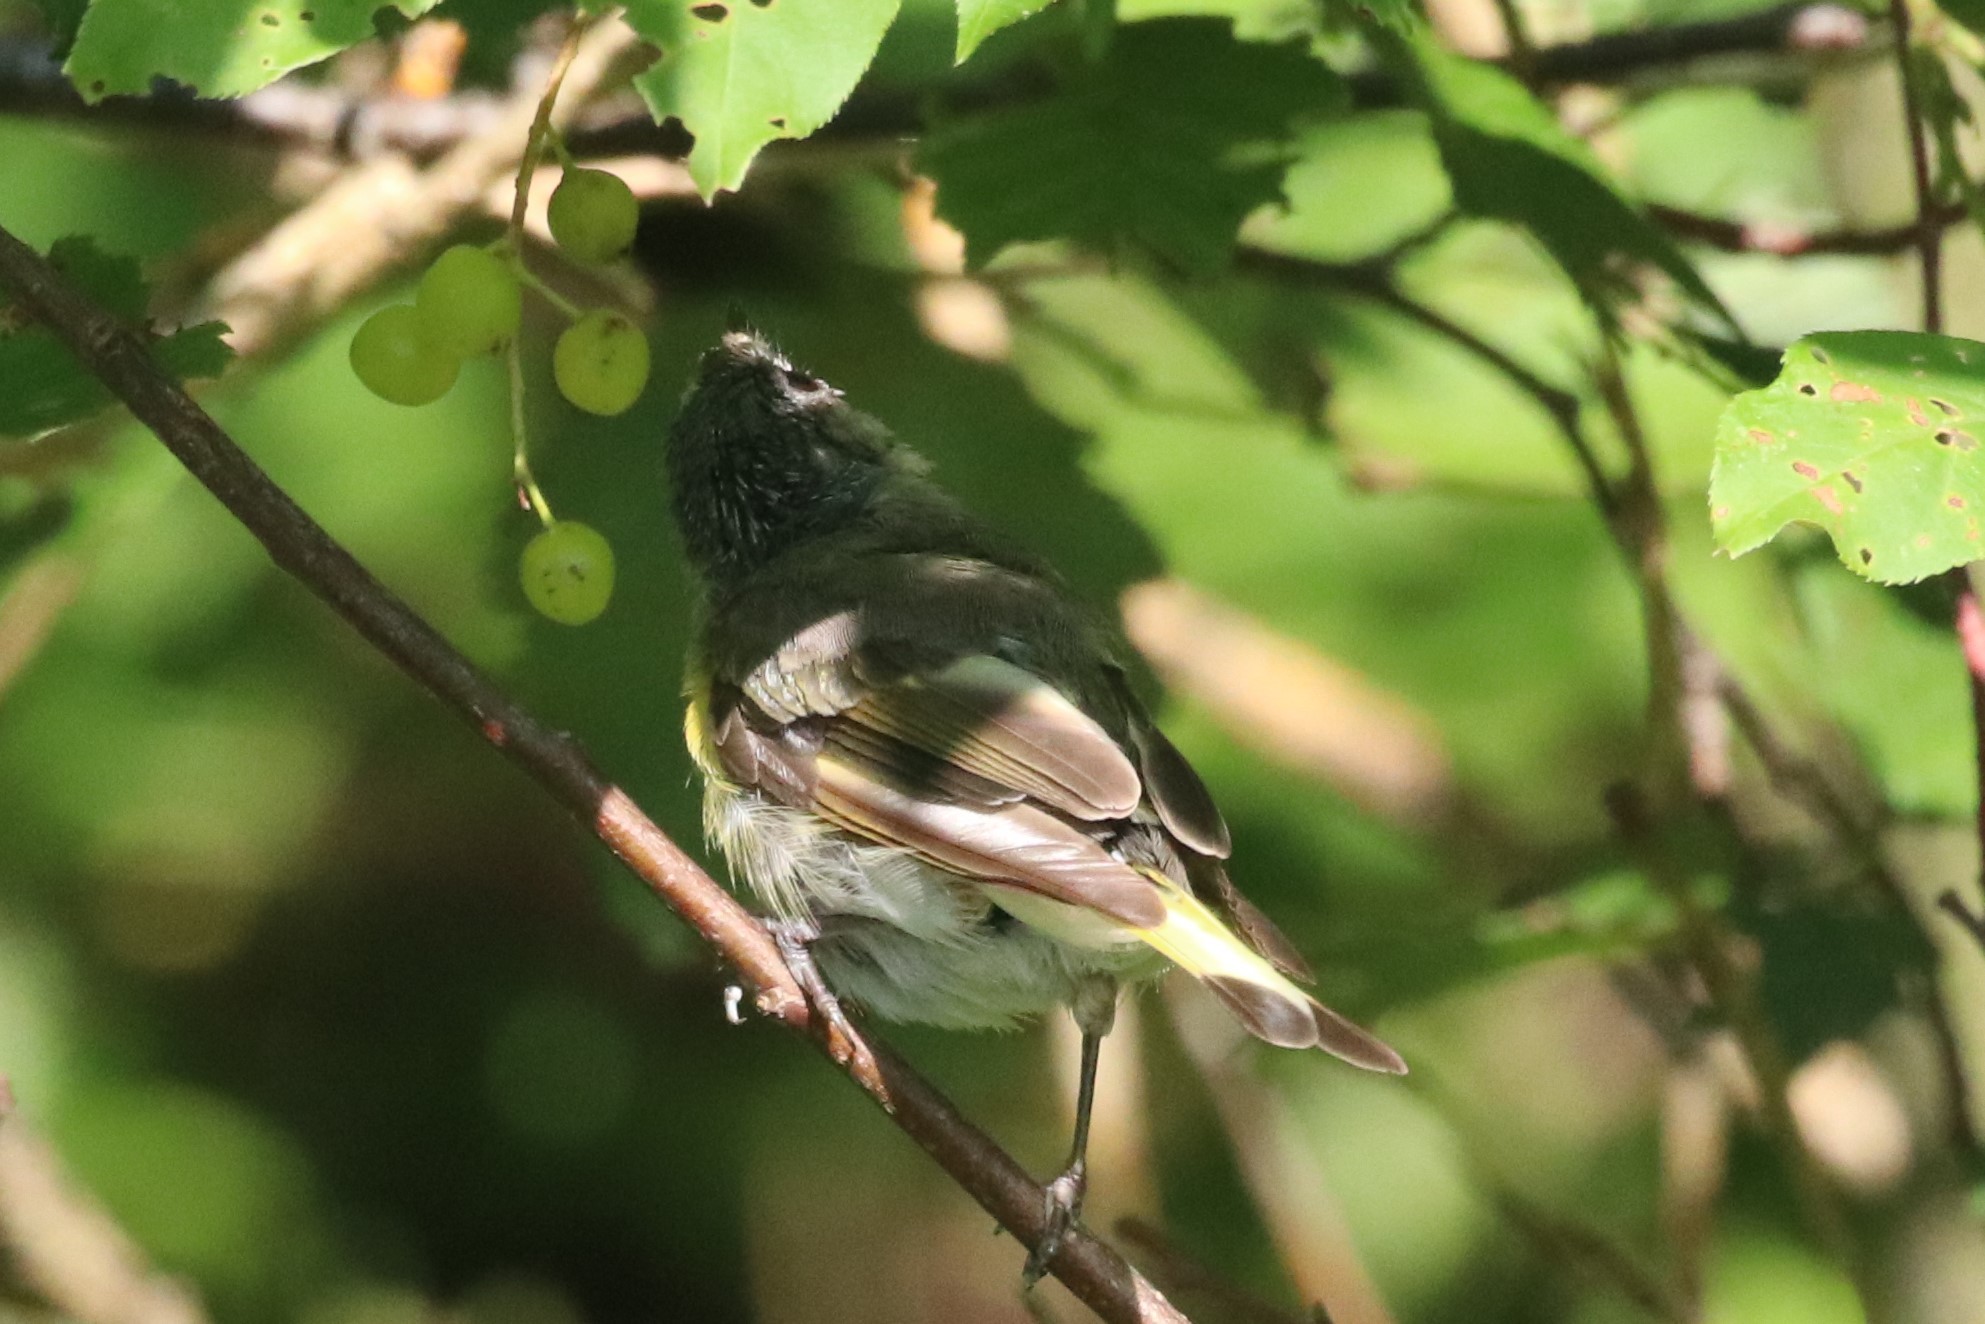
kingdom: Animalia
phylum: Chordata
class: Aves
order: Passeriformes
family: Parulidae
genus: Setophaga
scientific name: Setophaga ruticilla
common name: American redstart
